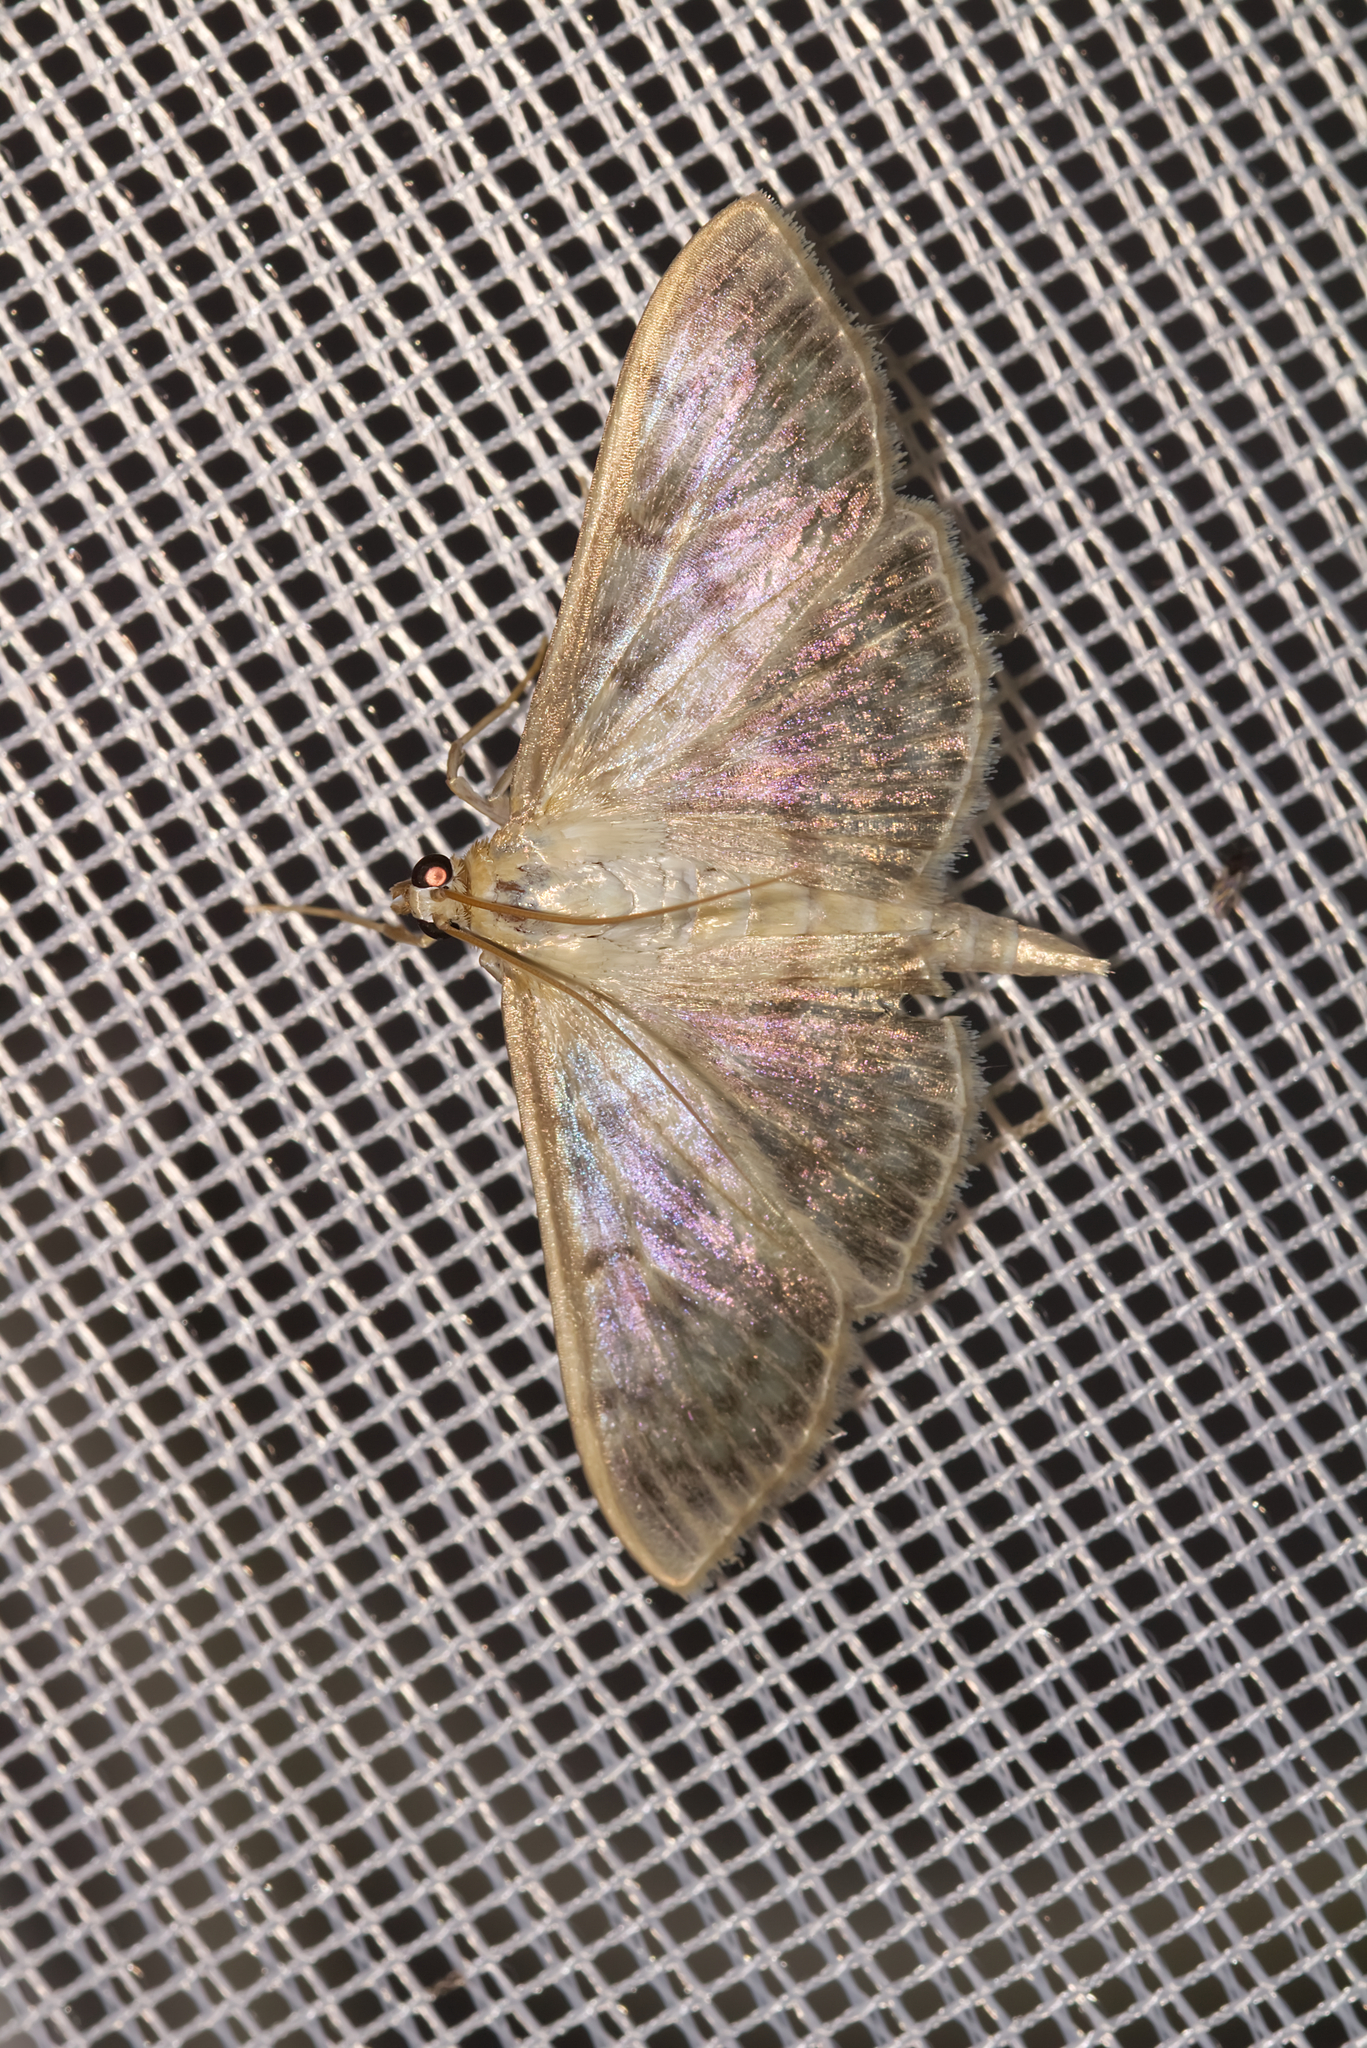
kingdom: Animalia
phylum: Arthropoda
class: Insecta
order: Lepidoptera
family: Crambidae
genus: Patania
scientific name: Patania ruralis
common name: Mother of pearl
